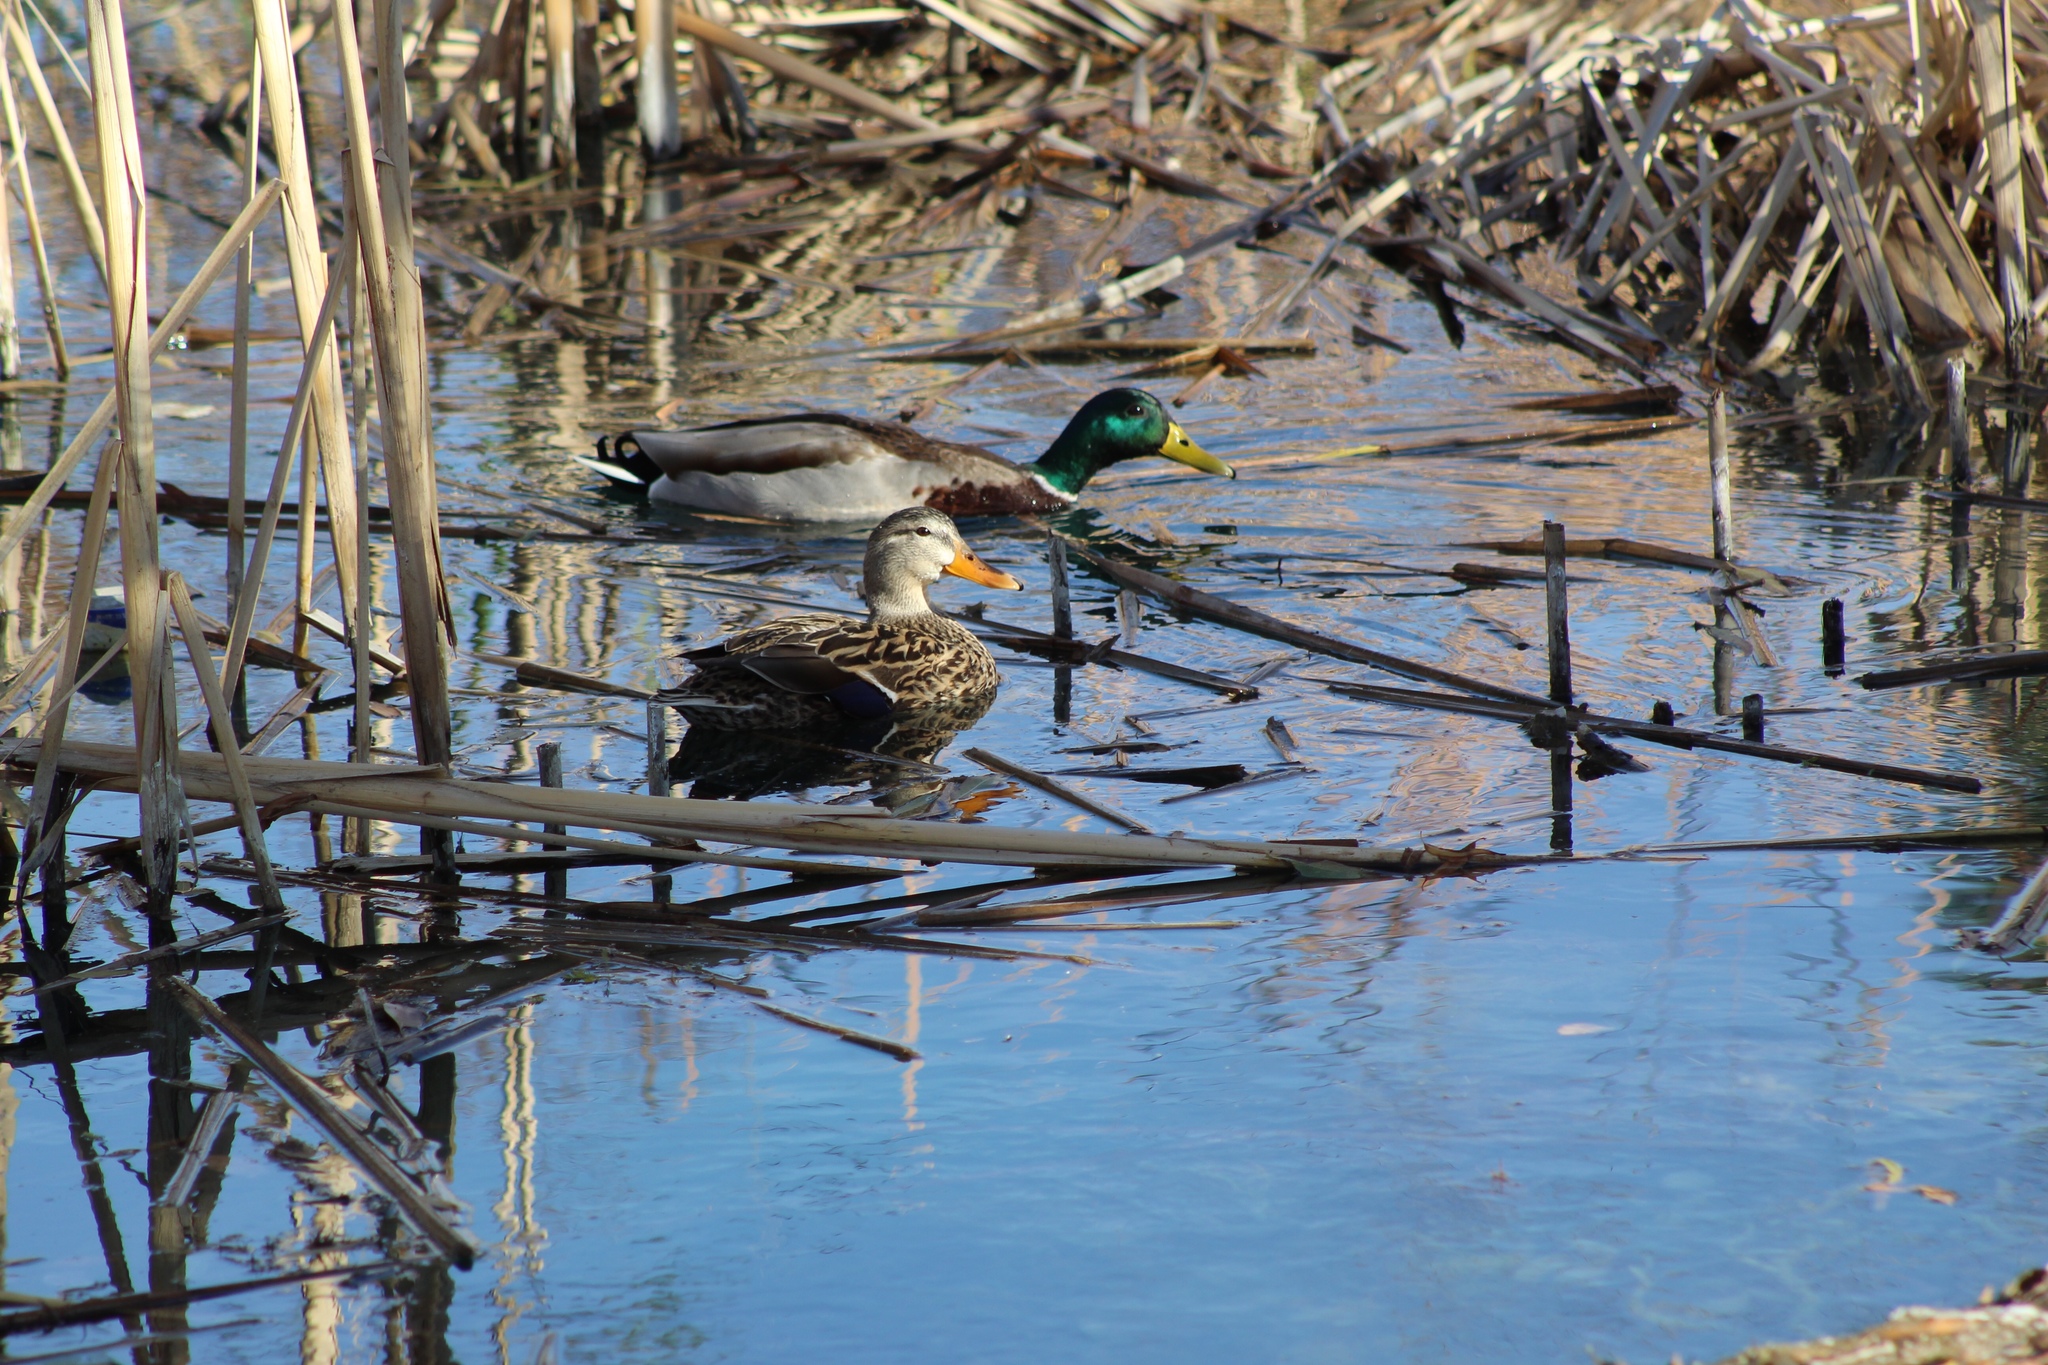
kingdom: Animalia
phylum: Chordata
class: Aves
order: Anseriformes
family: Anatidae
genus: Anas
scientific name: Anas platyrhynchos
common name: Mallard
